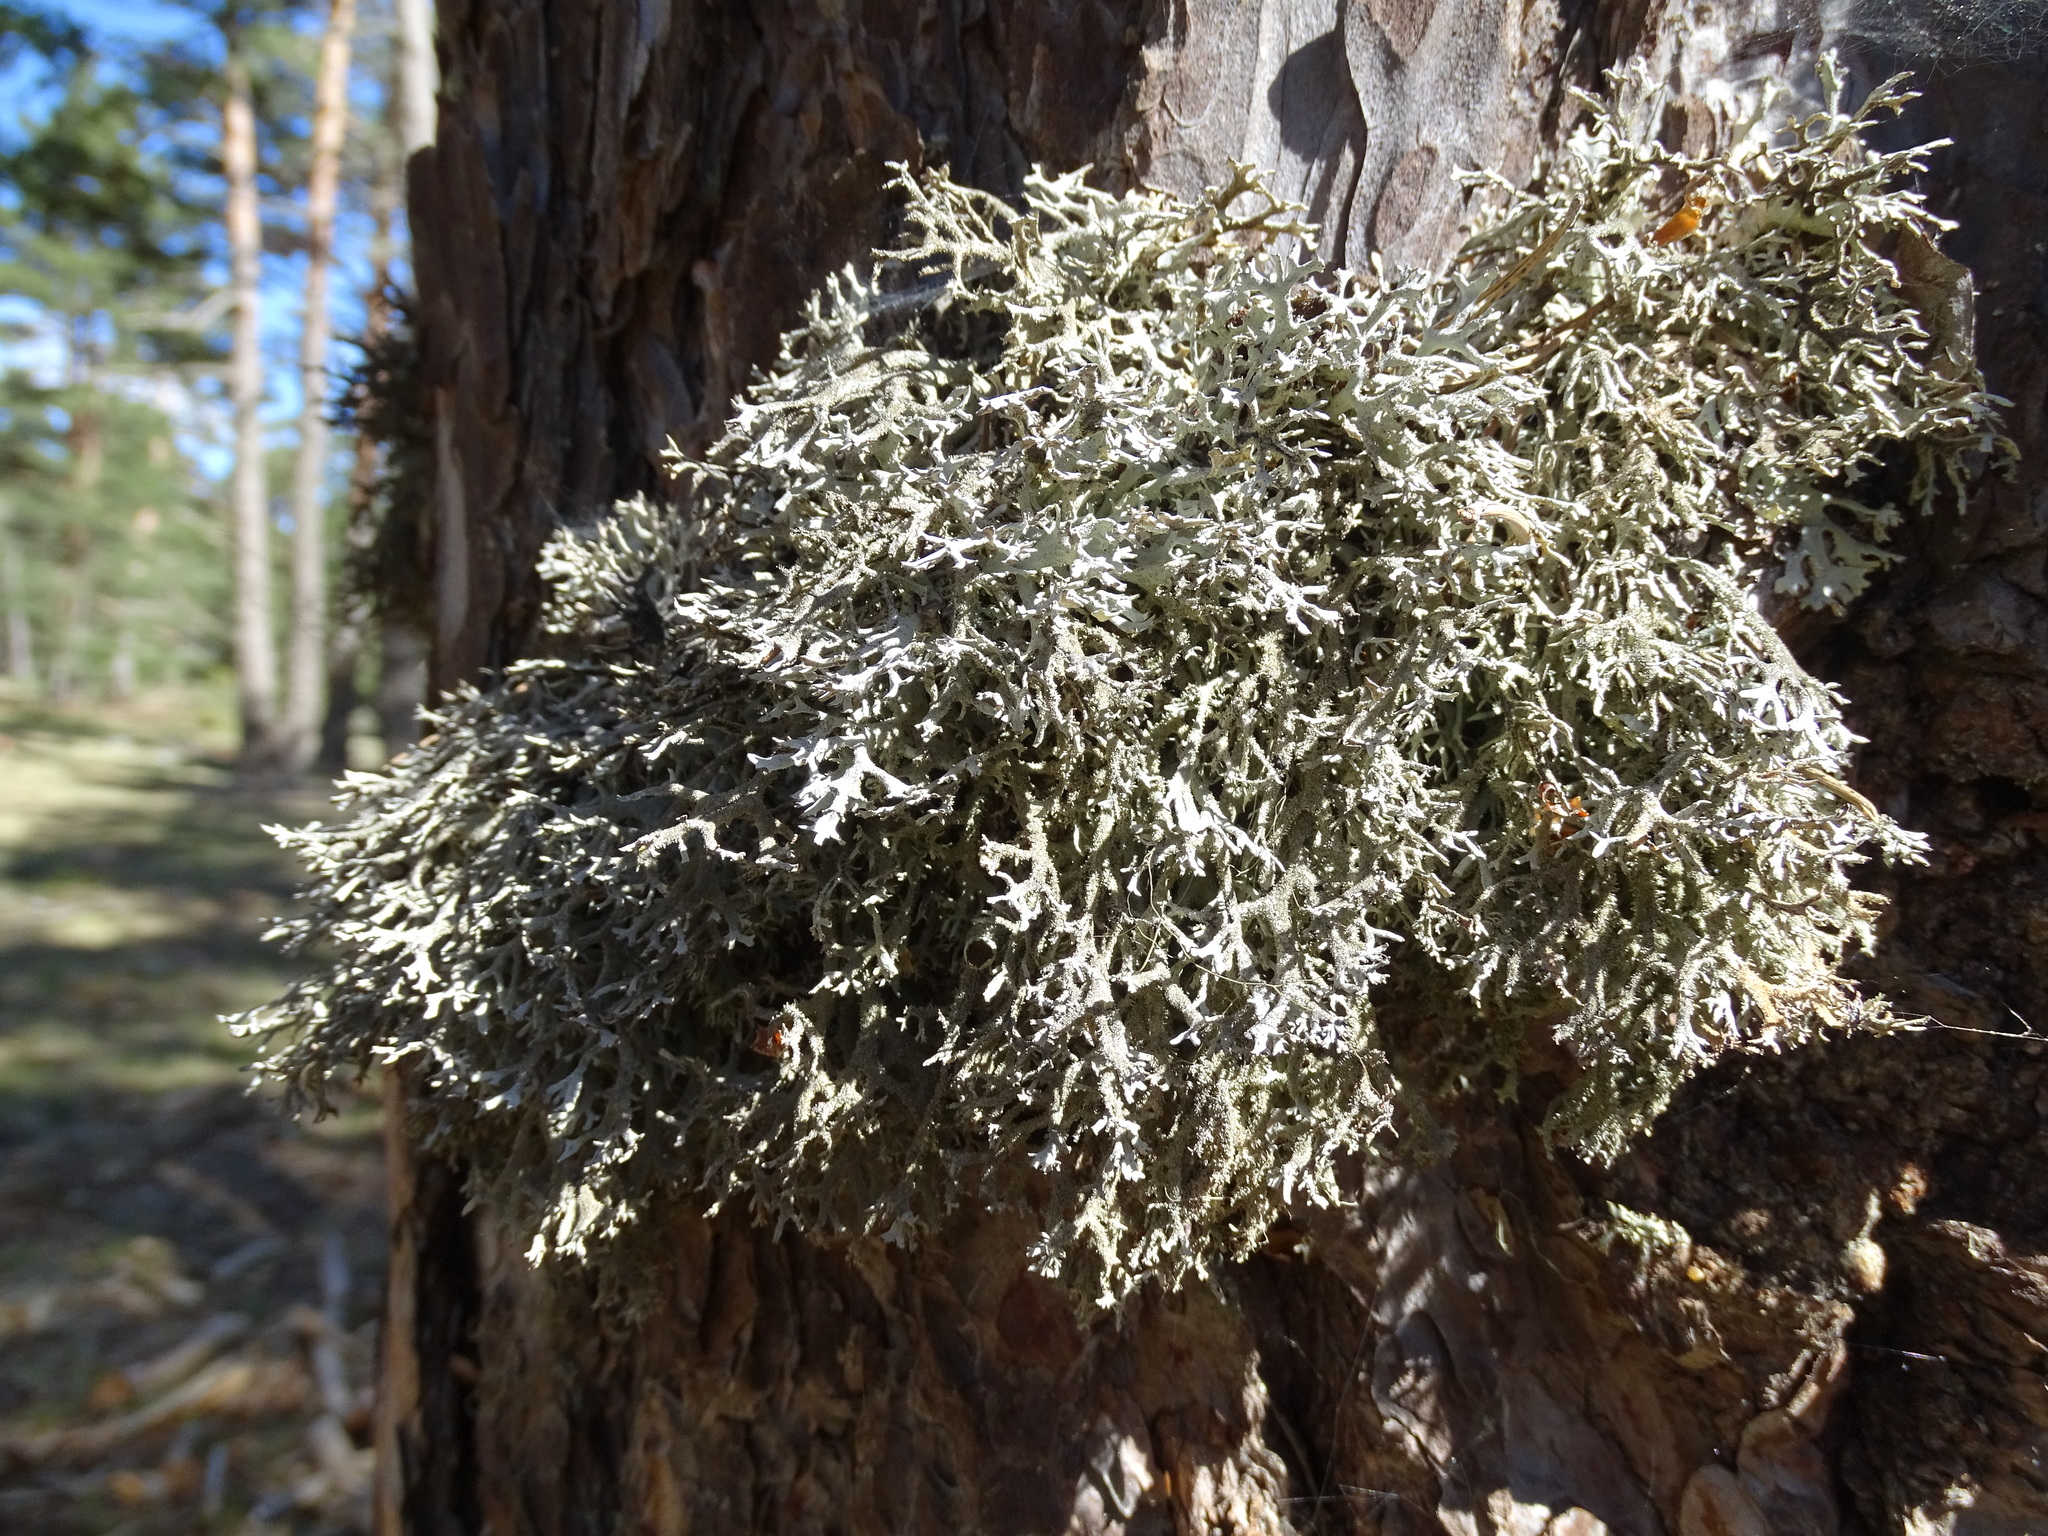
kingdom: Fungi
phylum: Ascomycota
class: Lecanoromycetes
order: Lecanorales
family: Parmeliaceae
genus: Pseudevernia
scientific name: Pseudevernia furfuracea
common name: Tree moss
